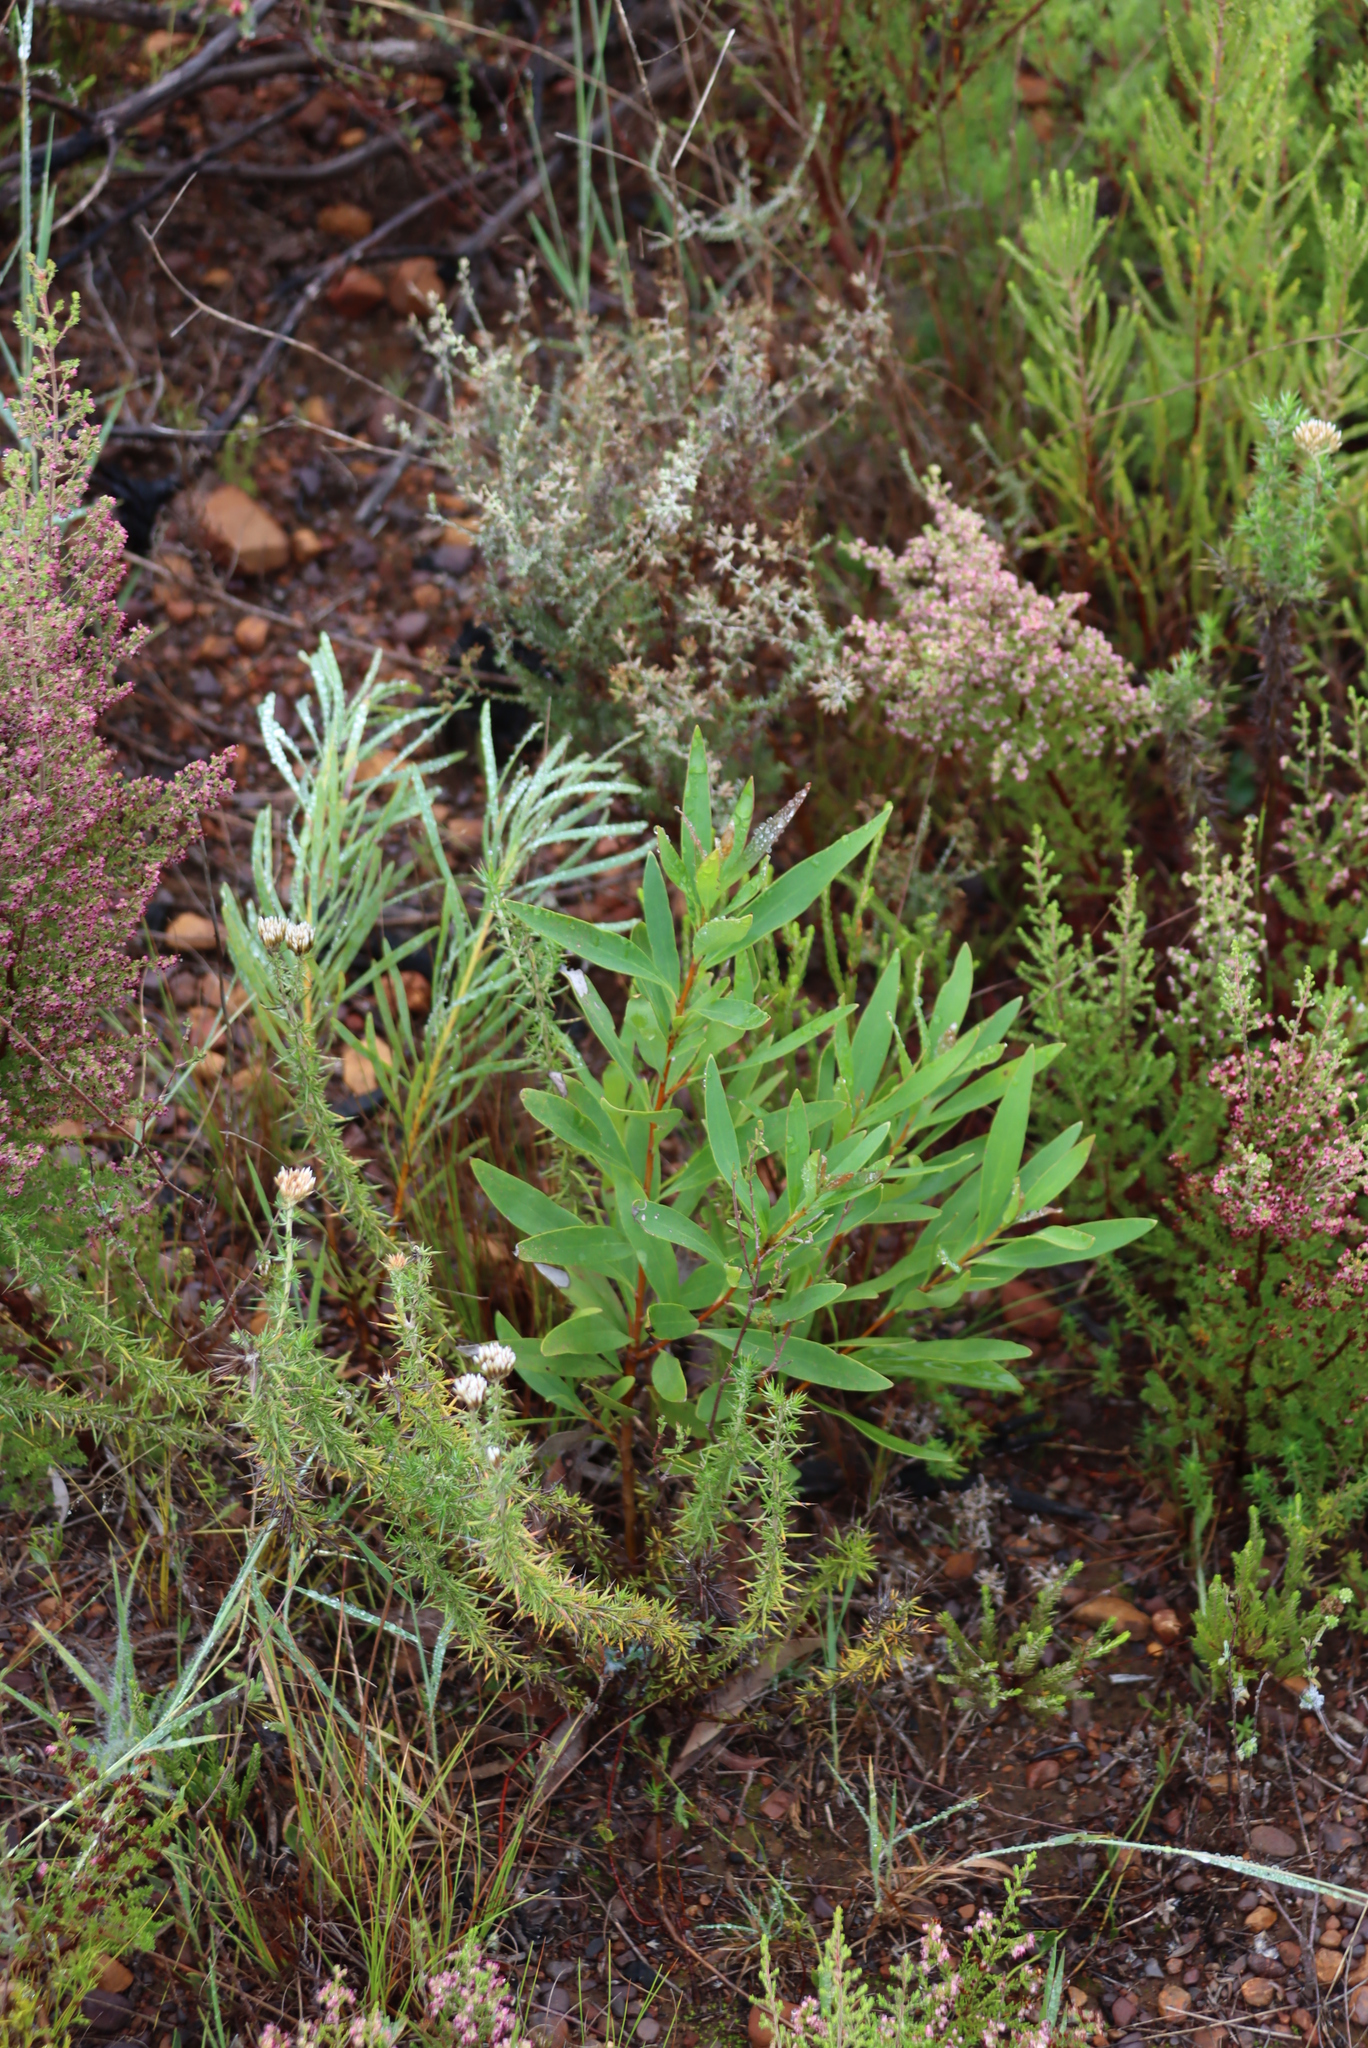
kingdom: Plantae
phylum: Tracheophyta
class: Magnoliopsida
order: Proteales
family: Proteaceae
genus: Hakea
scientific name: Hakea salicifolia
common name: Willow hakea
